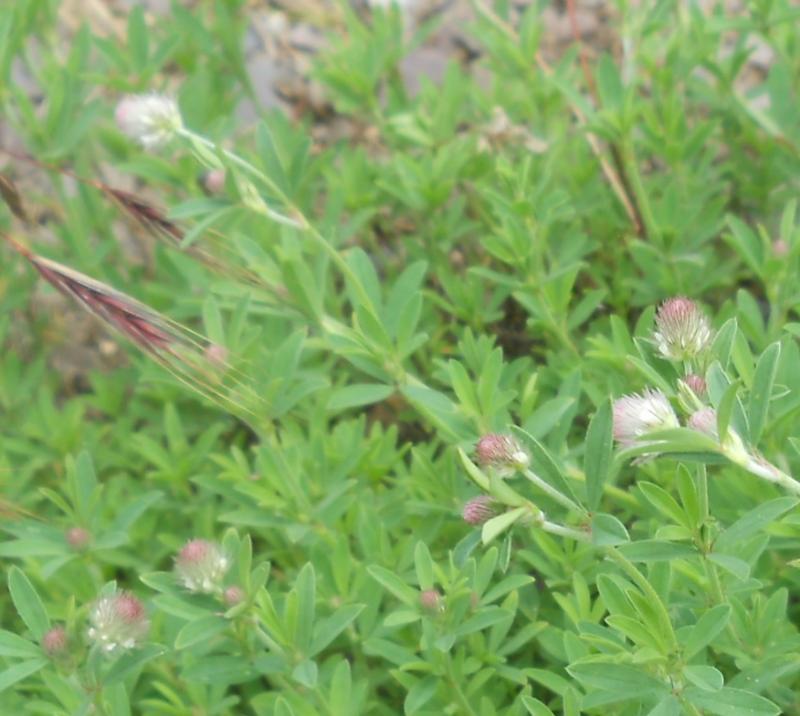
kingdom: Plantae
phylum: Tracheophyta
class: Magnoliopsida
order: Fabales
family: Fabaceae
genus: Trifolium
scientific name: Trifolium arvense
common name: Hare's-foot clover
